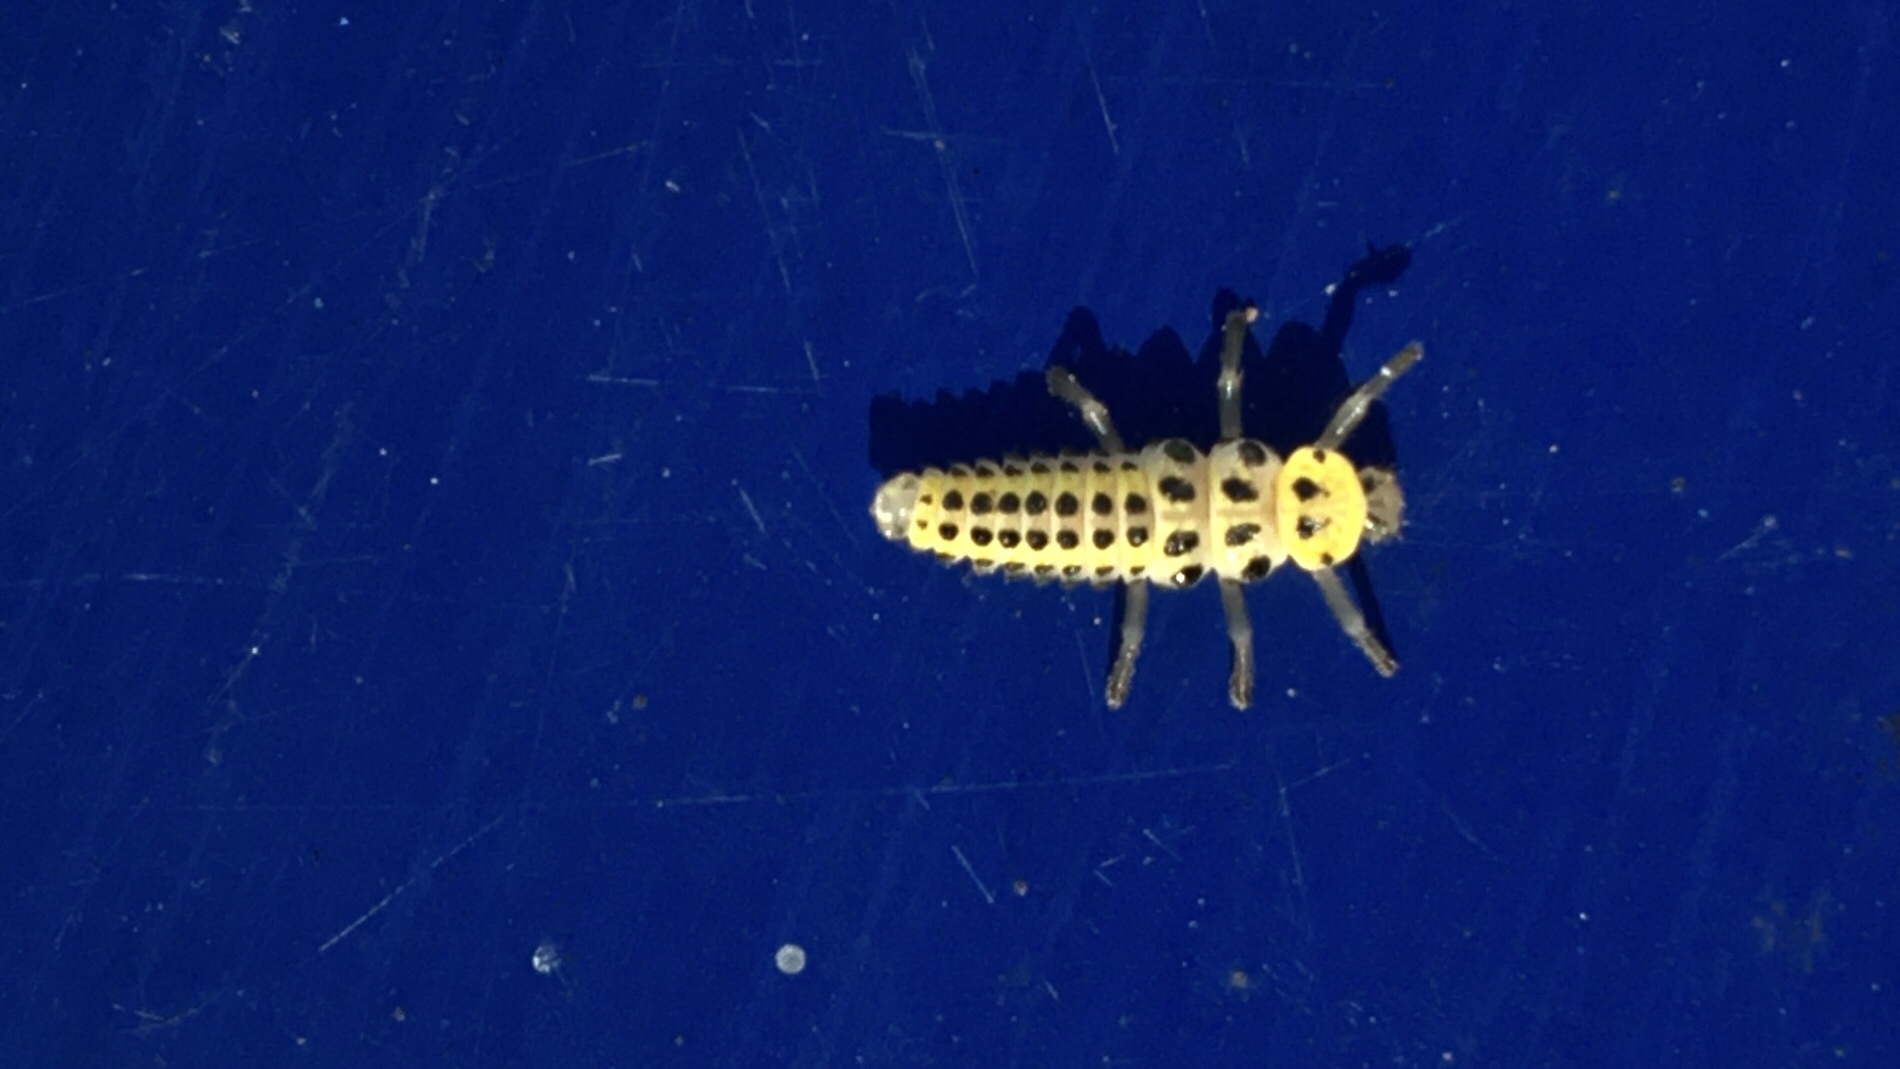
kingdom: Animalia
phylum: Arthropoda
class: Insecta
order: Coleoptera
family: Coccinellidae
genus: Halyzia
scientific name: Halyzia sedecimguttata
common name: Orange ladybird
